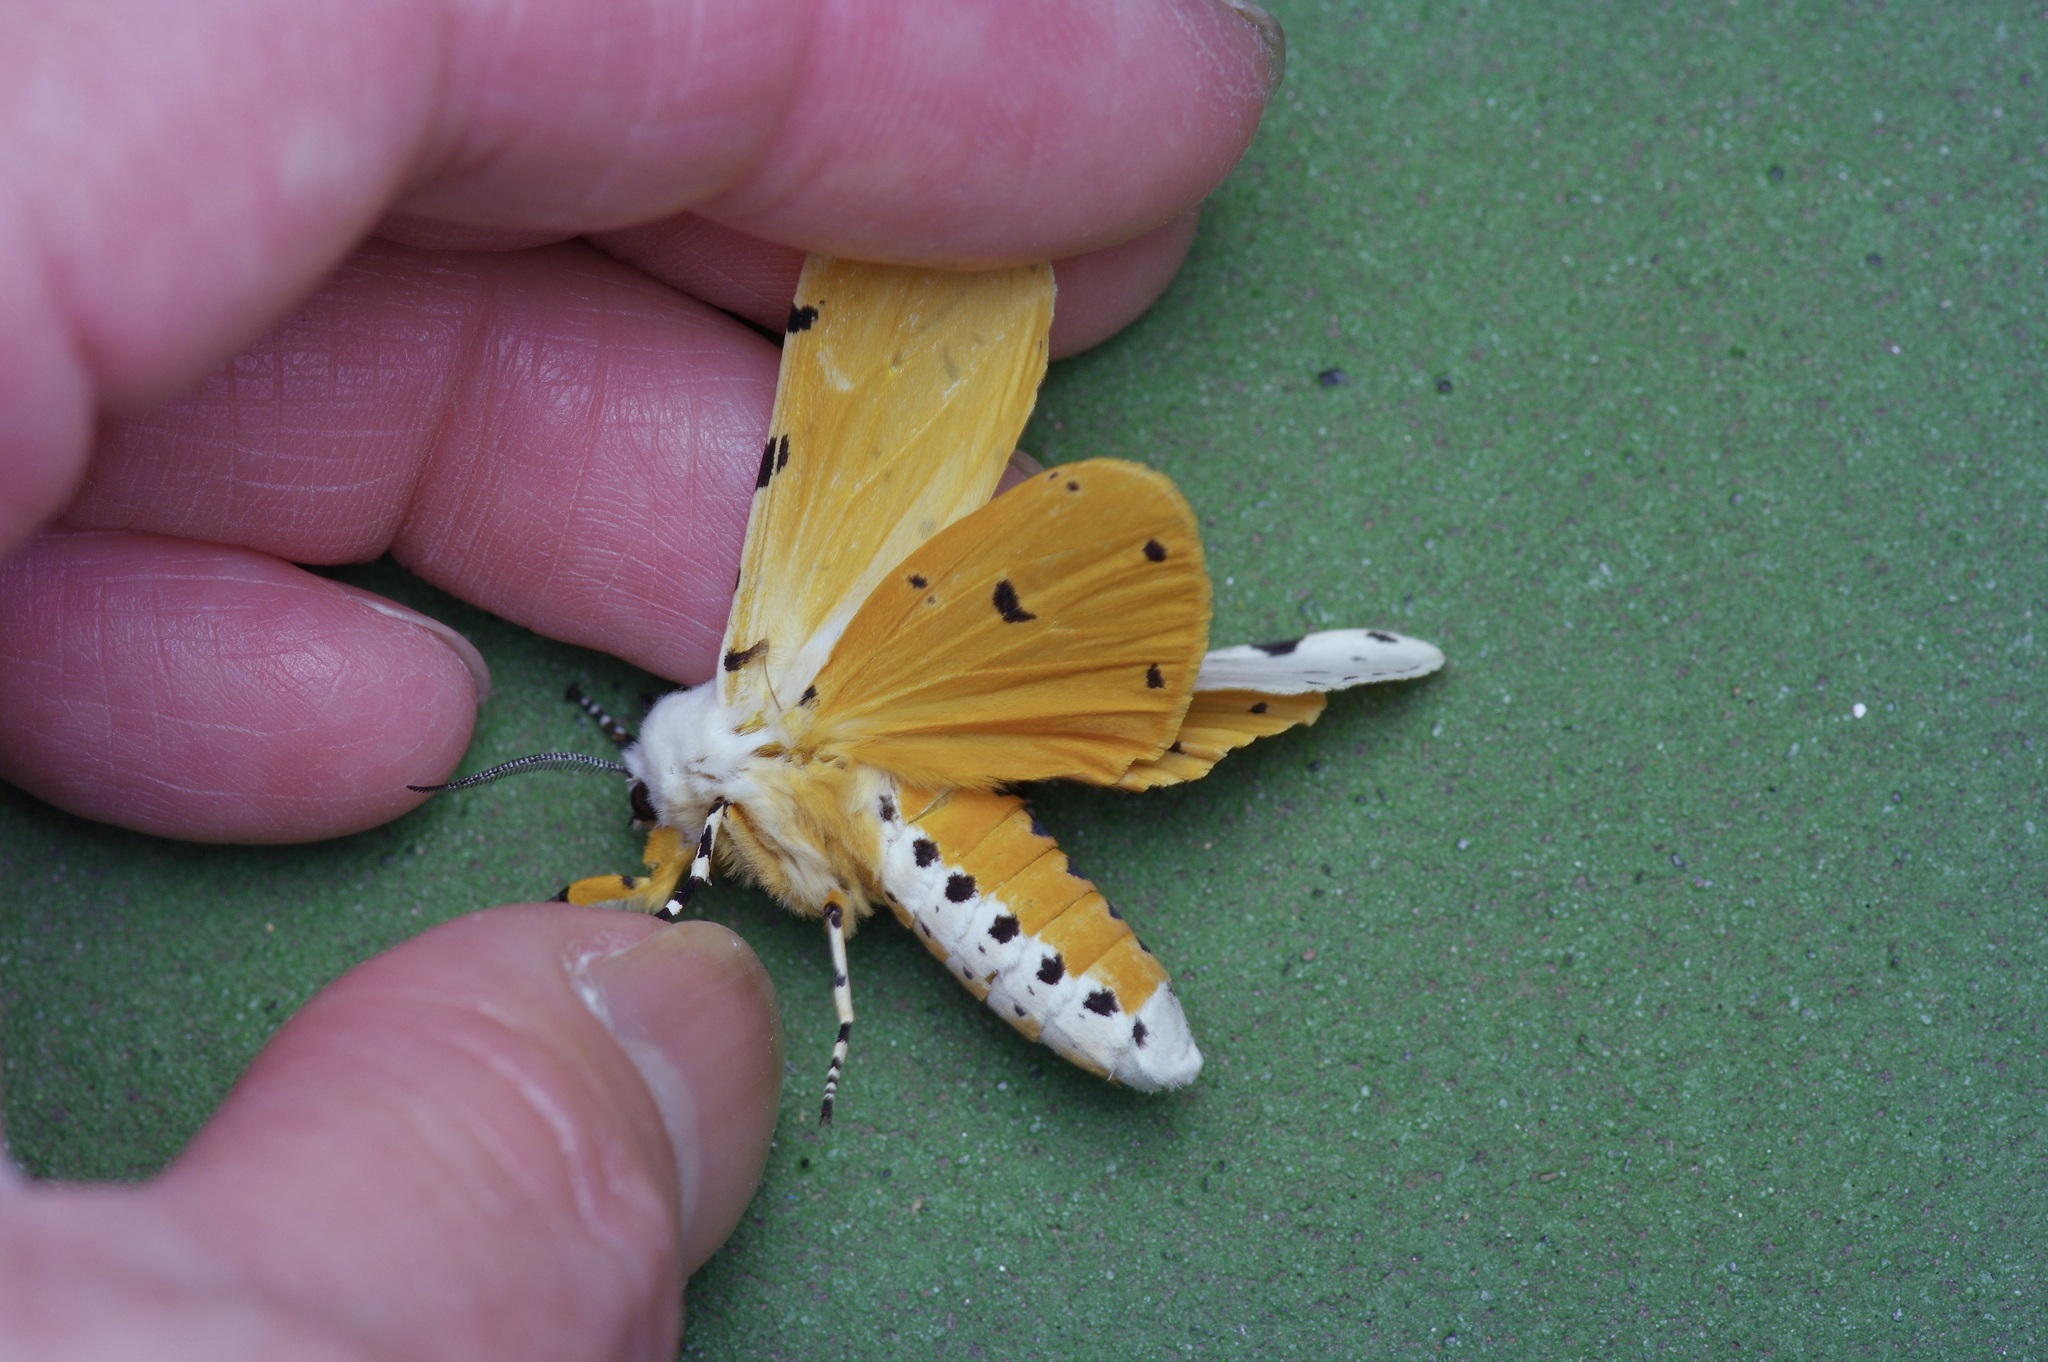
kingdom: Animalia
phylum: Arthropoda
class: Insecta
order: Lepidoptera
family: Erebidae
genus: Estigmene
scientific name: Estigmene acrea
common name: Salt marsh moth
